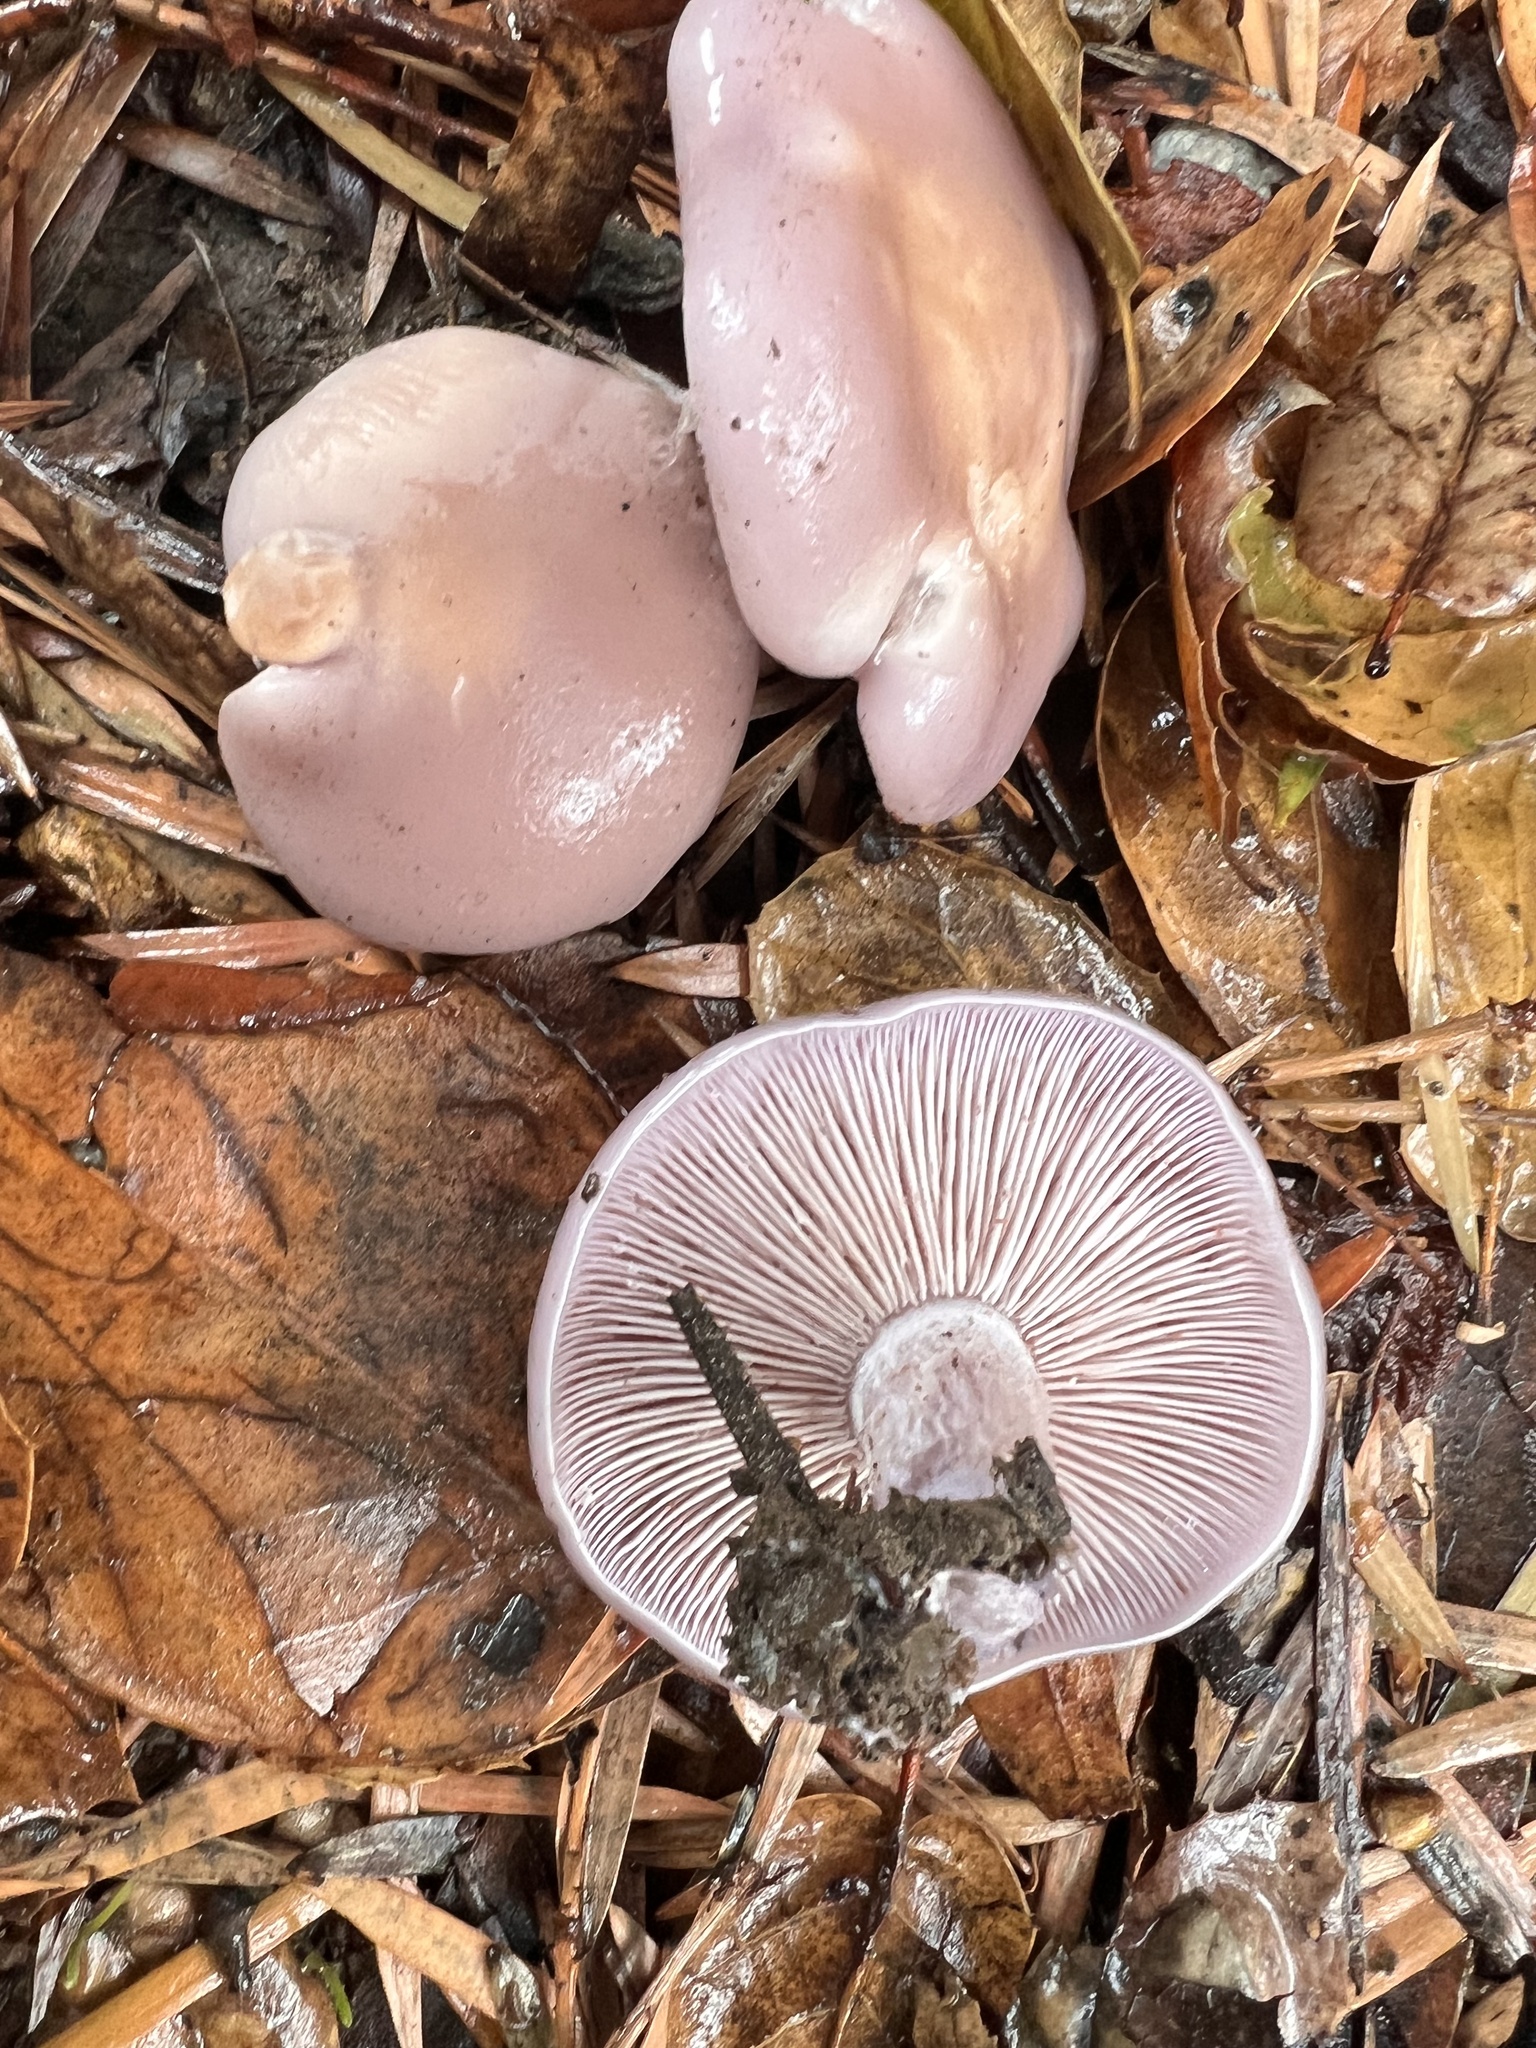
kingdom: Fungi
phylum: Basidiomycota
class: Agaricomycetes
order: Agaricales
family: Tricholomataceae
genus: Collybia
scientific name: Collybia
